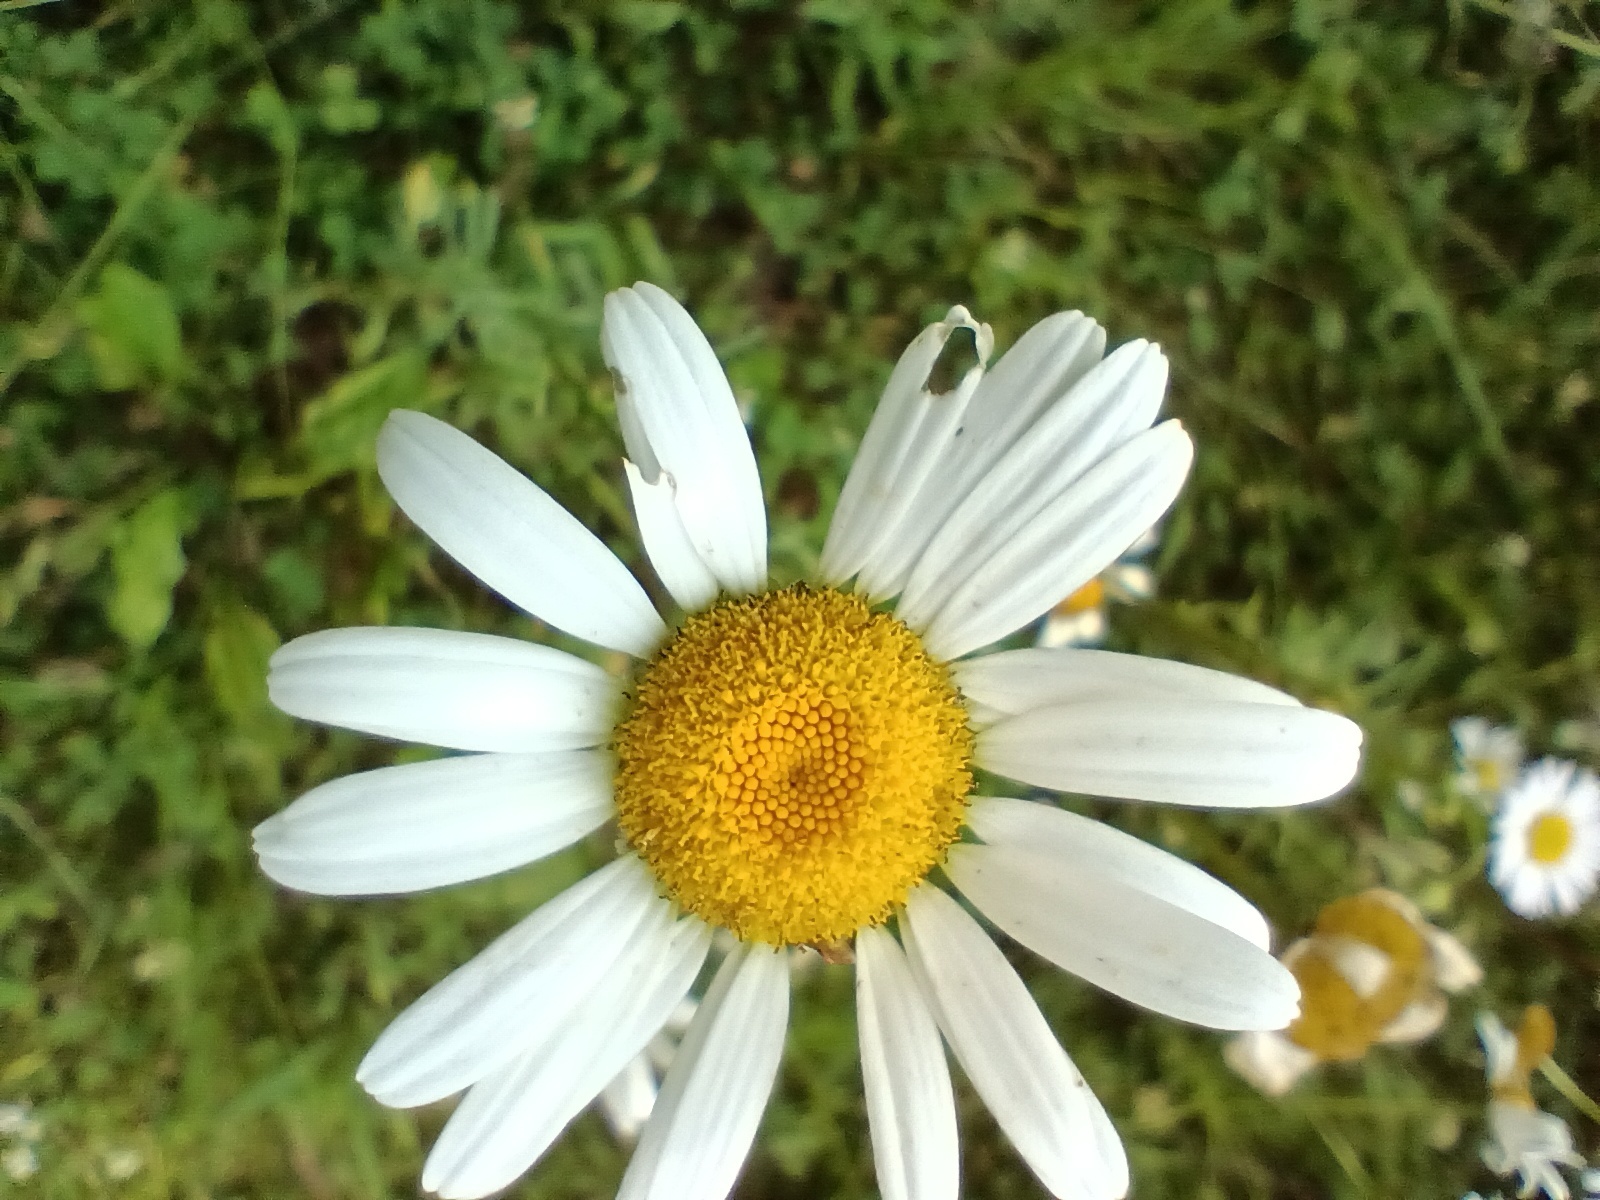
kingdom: Plantae
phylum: Tracheophyta
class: Magnoliopsida
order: Asterales
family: Asteraceae
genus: Leucanthemum
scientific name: Leucanthemum vulgare
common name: Oxeye daisy
